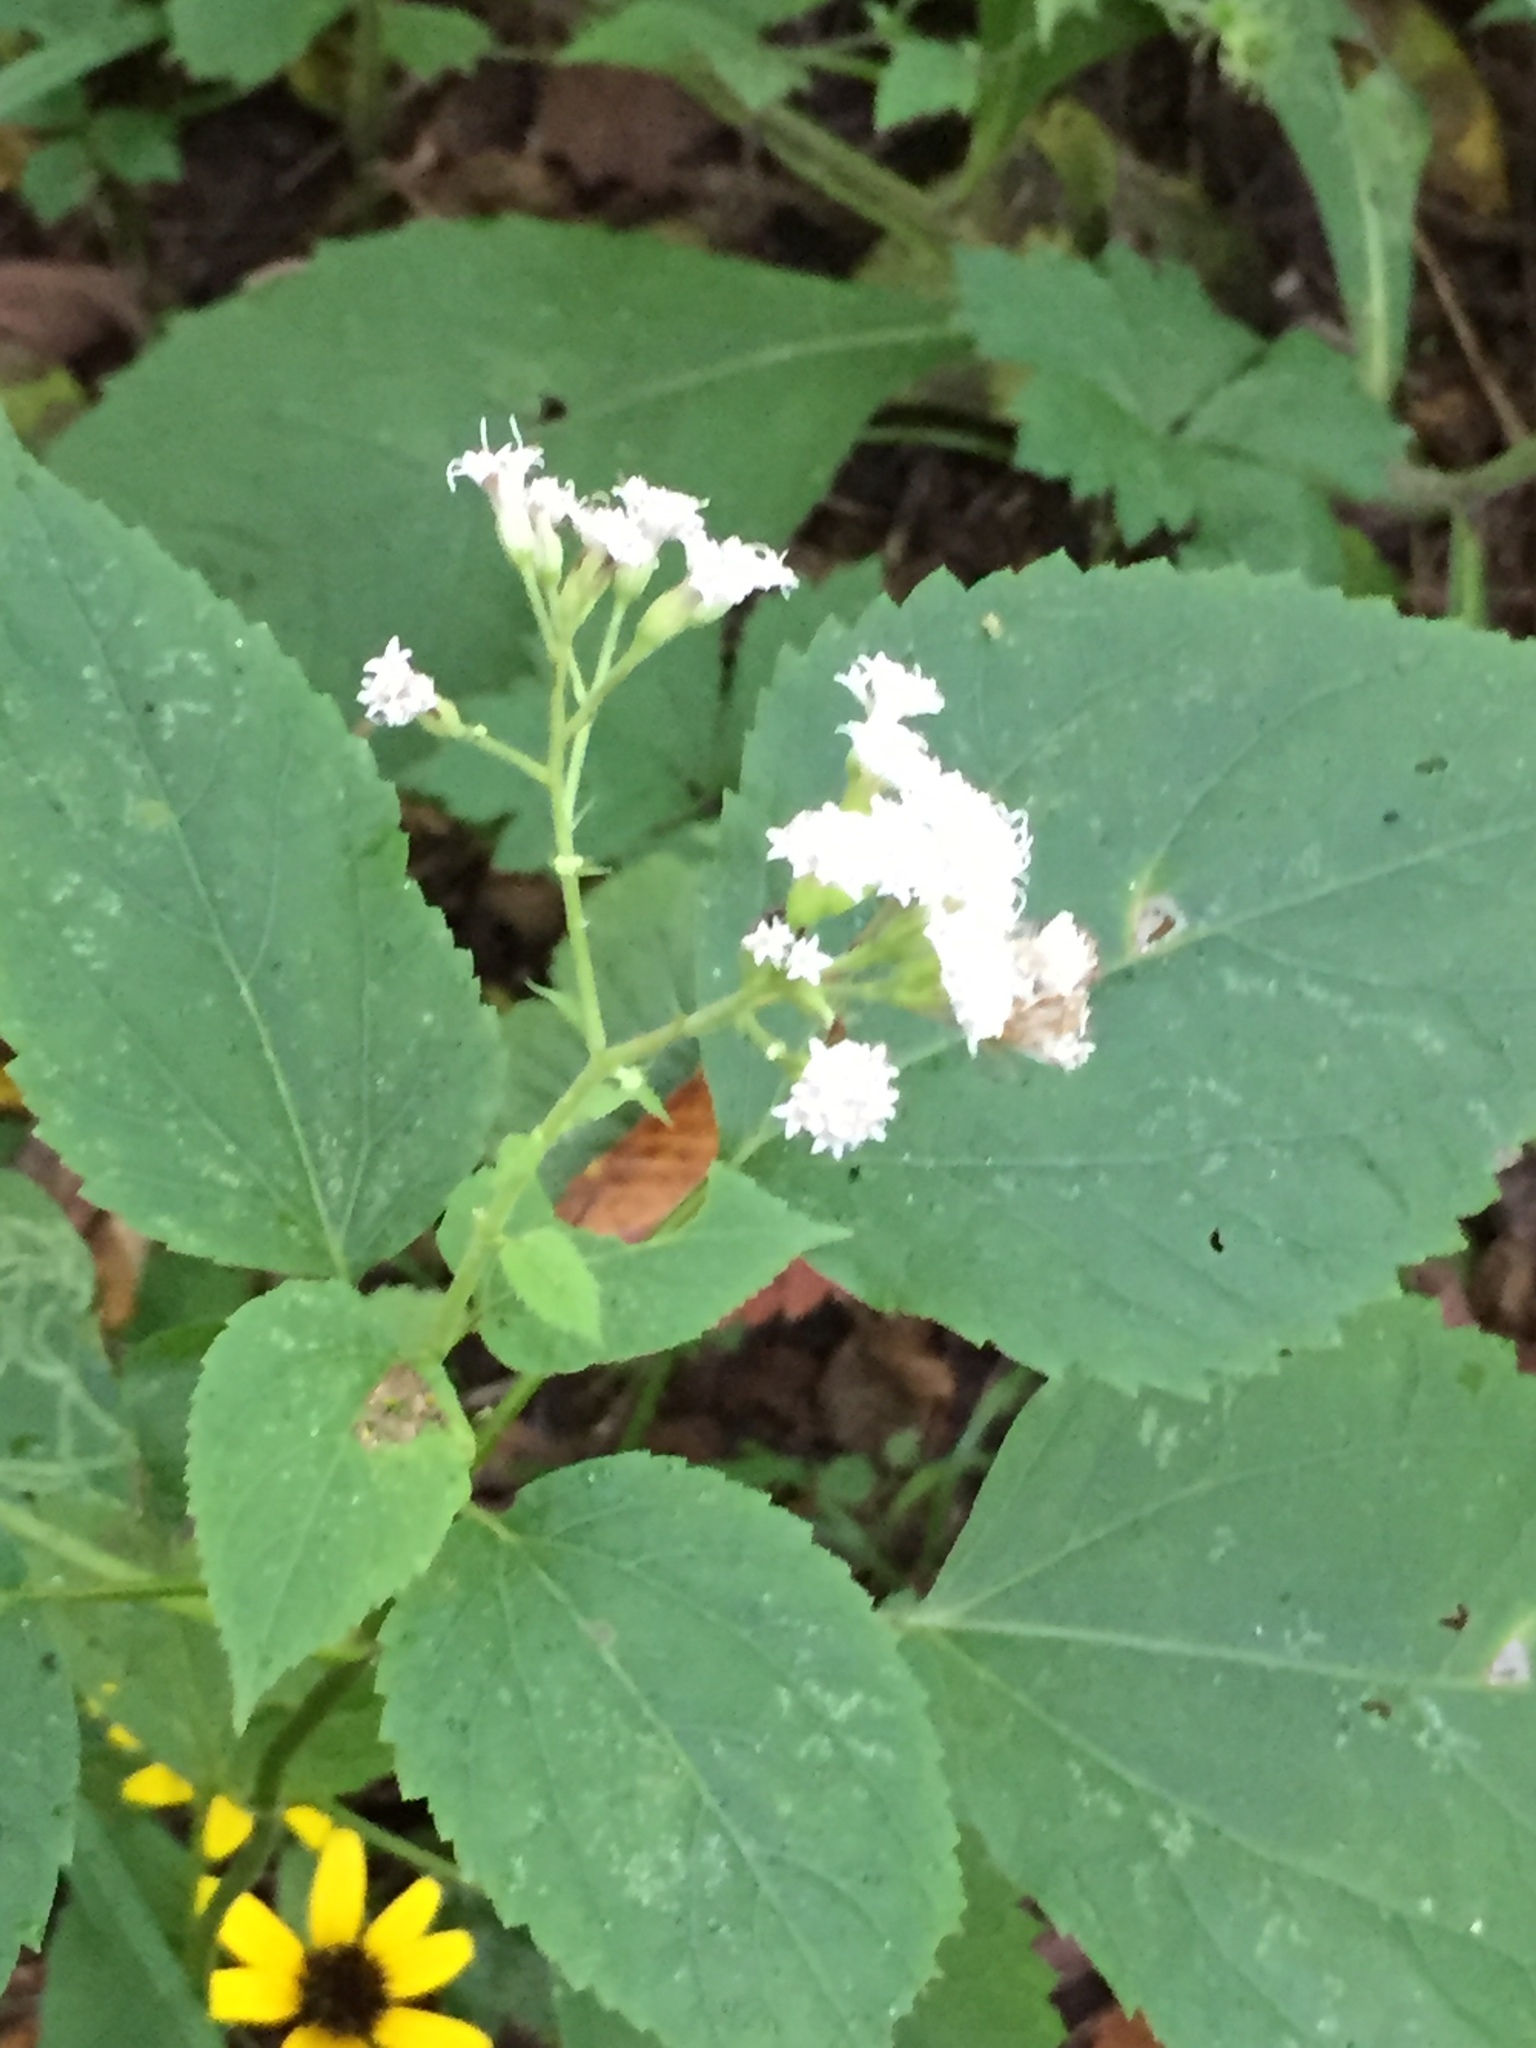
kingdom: Plantae
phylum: Tracheophyta
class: Magnoliopsida
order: Asterales
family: Asteraceae
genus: Ageratina
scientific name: Ageratina altissima
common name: White snakeroot
